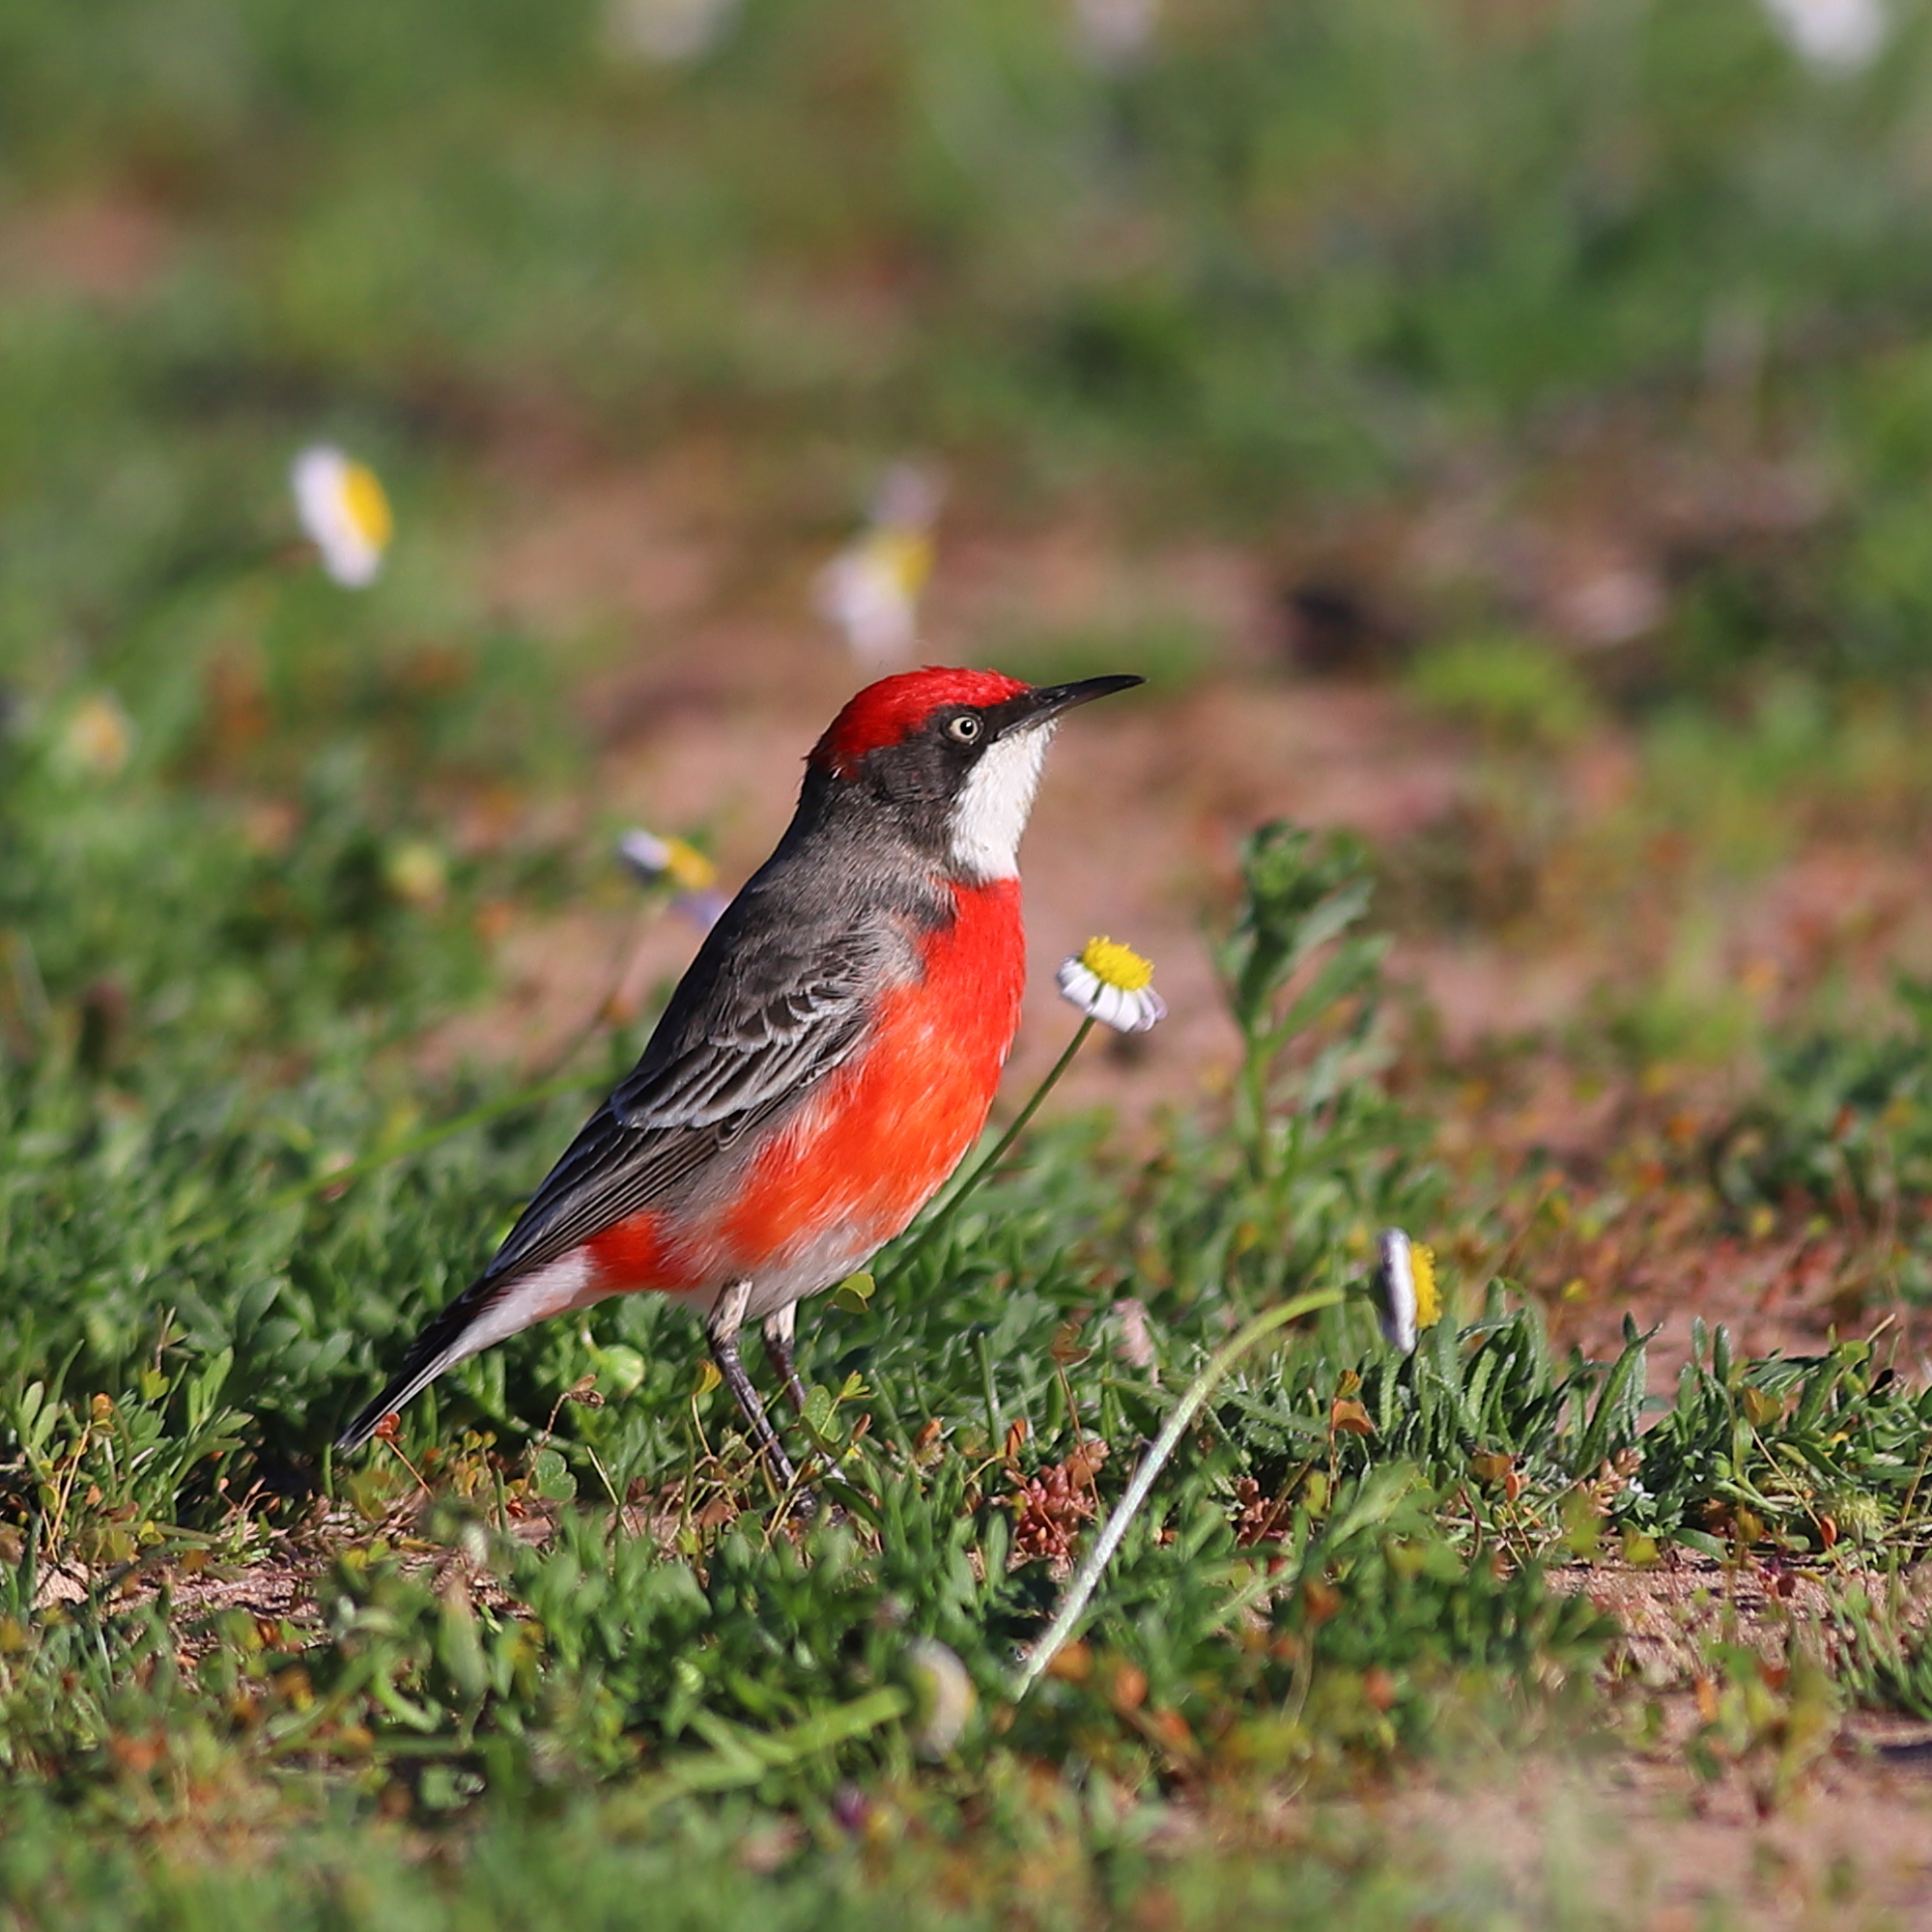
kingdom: Animalia
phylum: Chordata
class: Aves
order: Passeriformes
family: Meliphagidae
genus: Epthianura
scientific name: Epthianura tricolor
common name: Crimson chat
